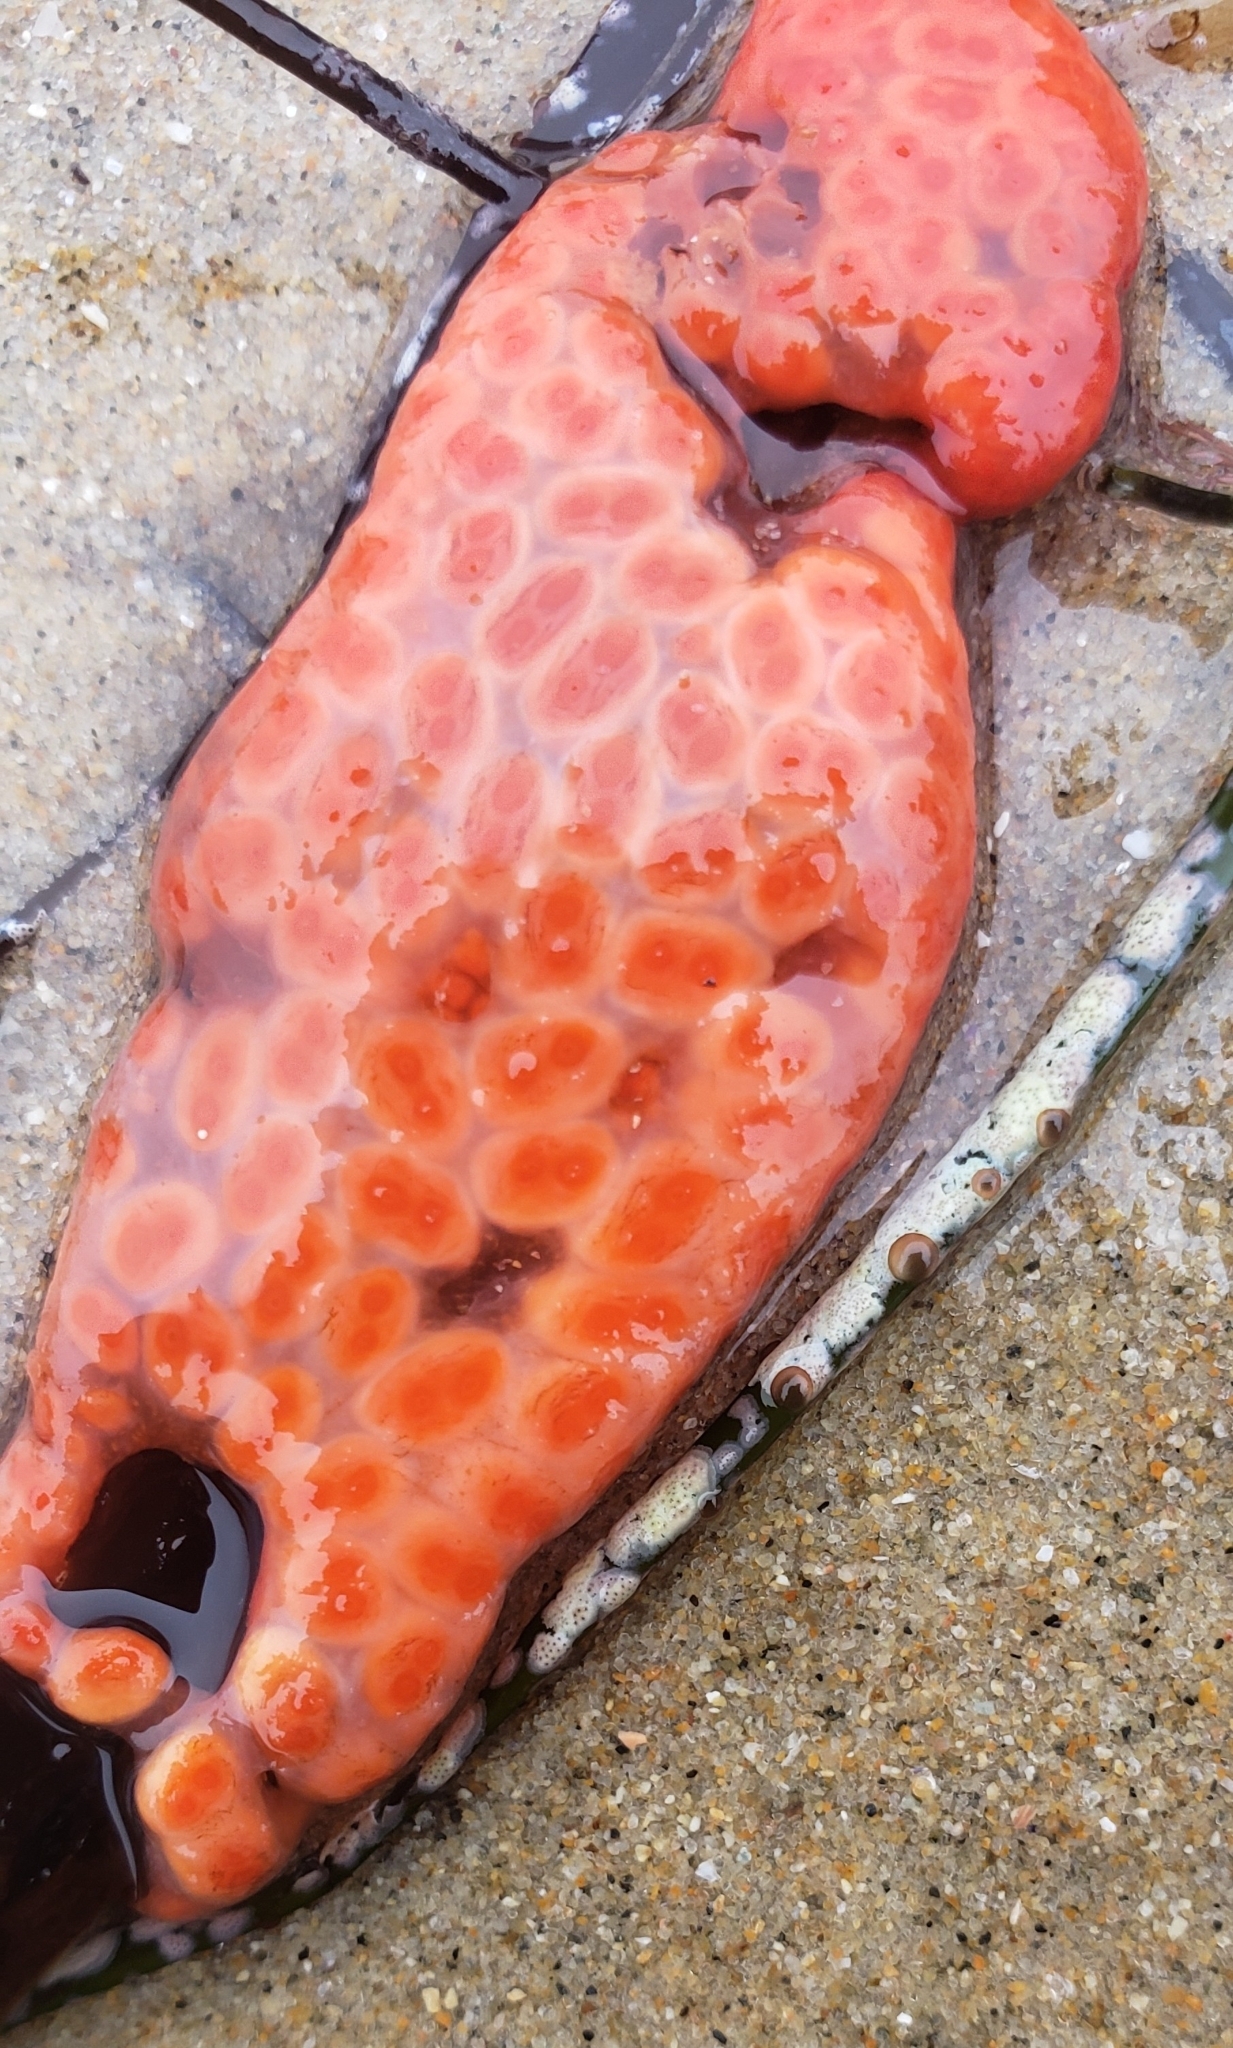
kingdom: Animalia
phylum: Chordata
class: Ascidiacea
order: Stolidobranchia
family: Styelidae
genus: Metandrocarpa
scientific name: Metandrocarpa dura
